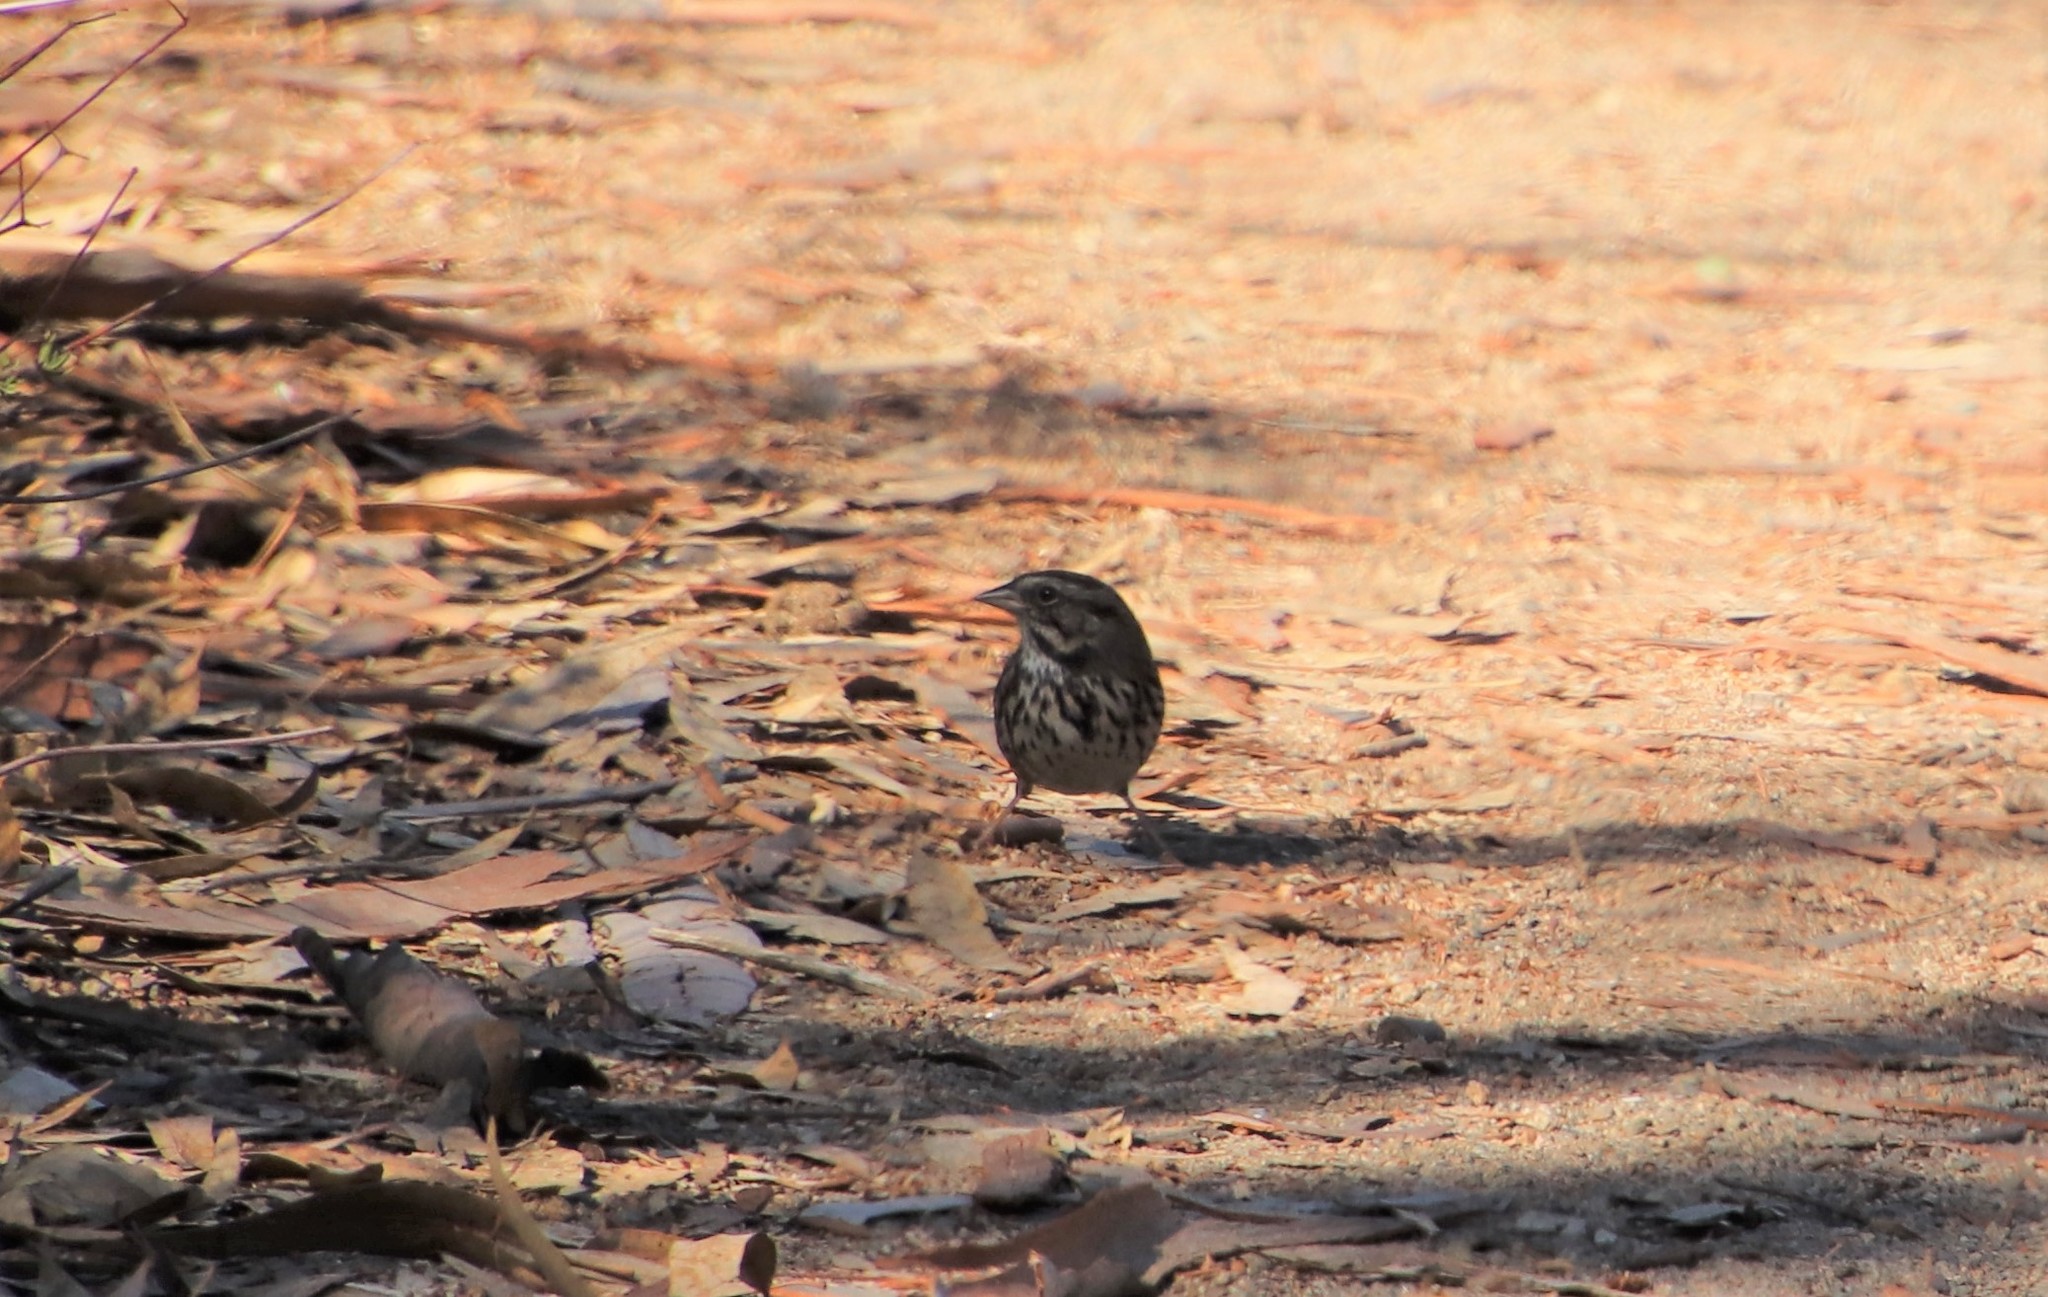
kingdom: Animalia
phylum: Chordata
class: Aves
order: Passeriformes
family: Passerellidae
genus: Melospiza
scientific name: Melospiza melodia
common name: Song sparrow
